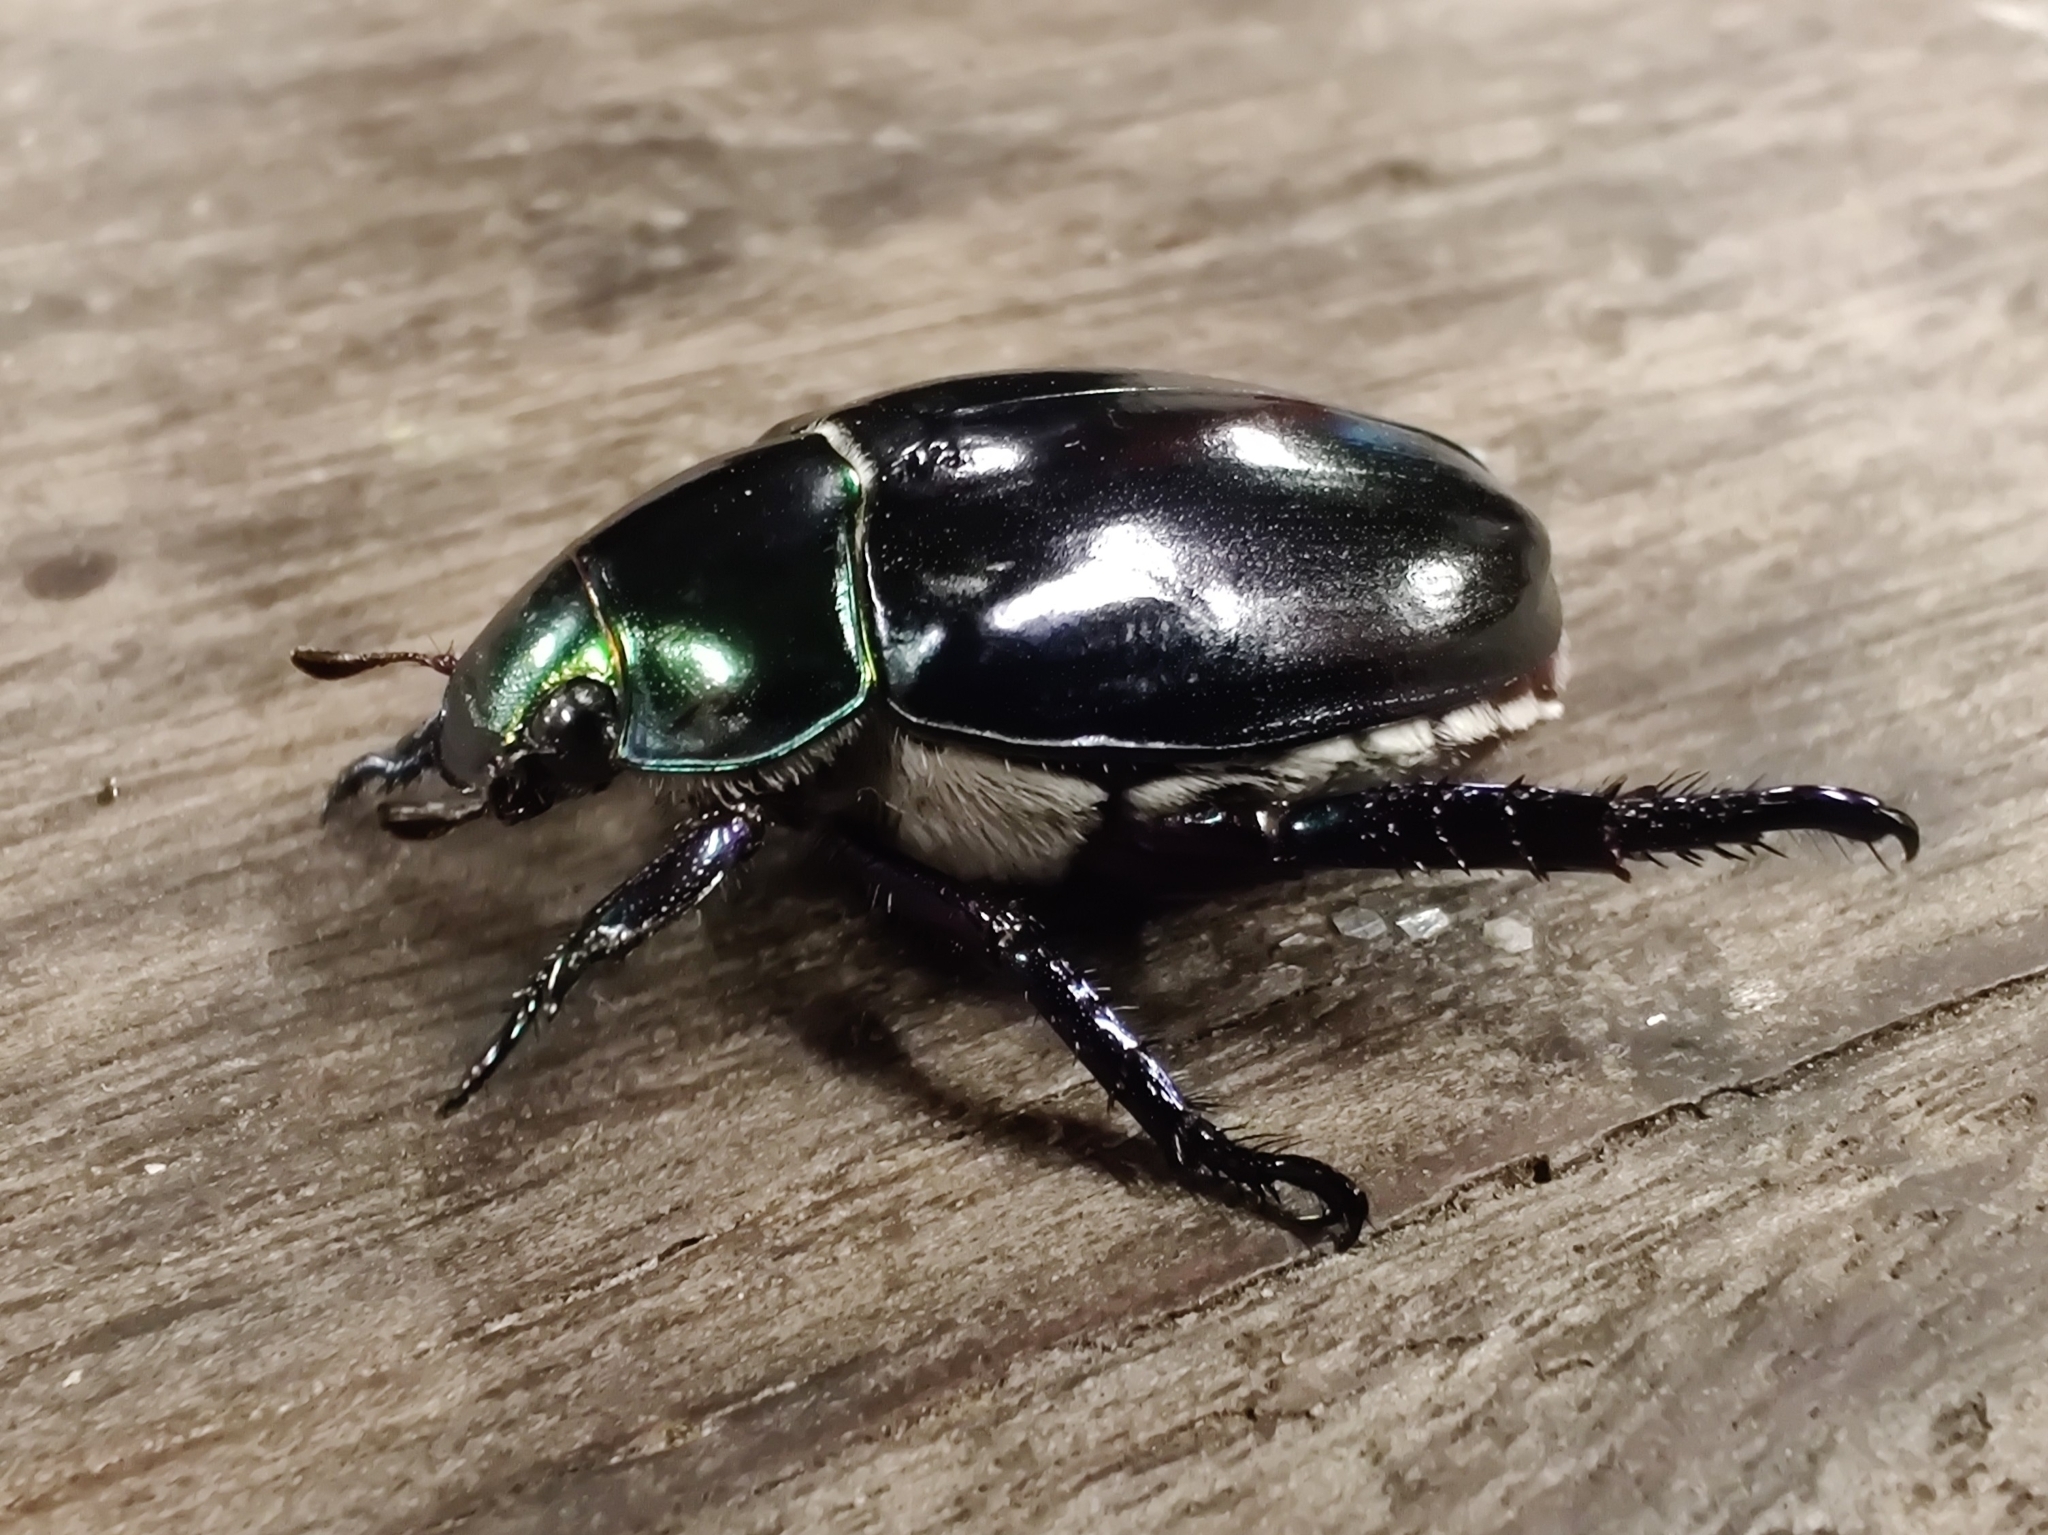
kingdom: Animalia
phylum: Arthropoda
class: Insecta
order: Coleoptera
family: Scarabaeidae
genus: Repsimus
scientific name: Repsimus aeneus
